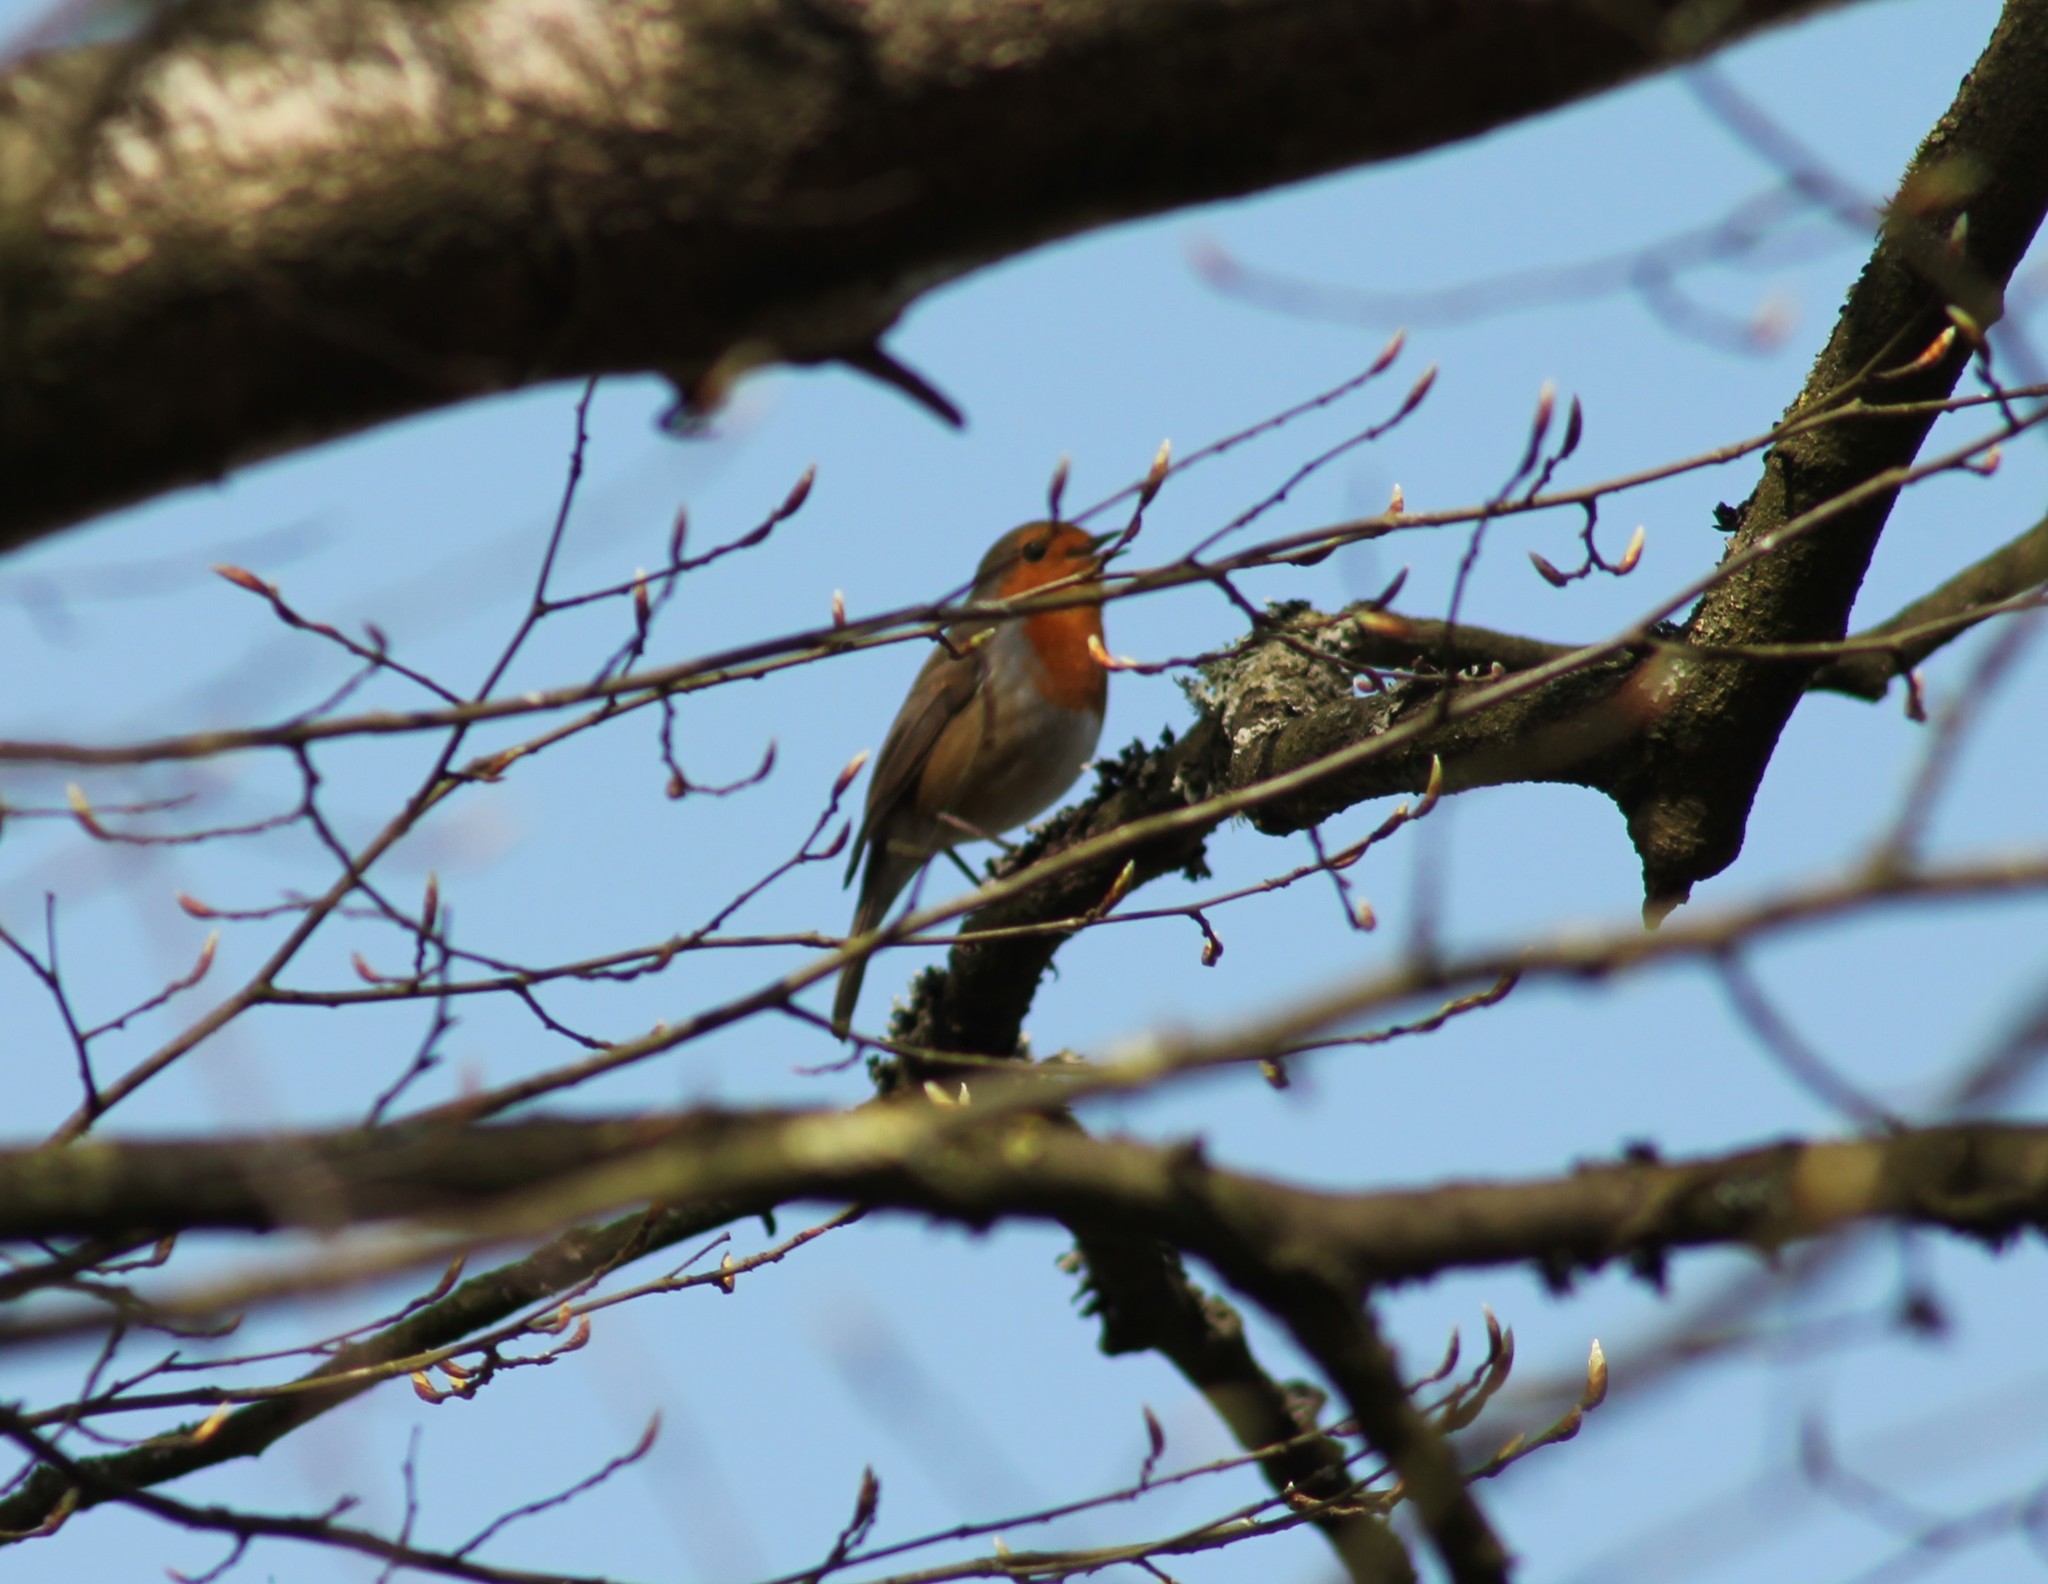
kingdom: Animalia
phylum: Chordata
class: Aves
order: Passeriformes
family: Muscicapidae
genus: Erithacus
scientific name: Erithacus rubecula
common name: European robin
